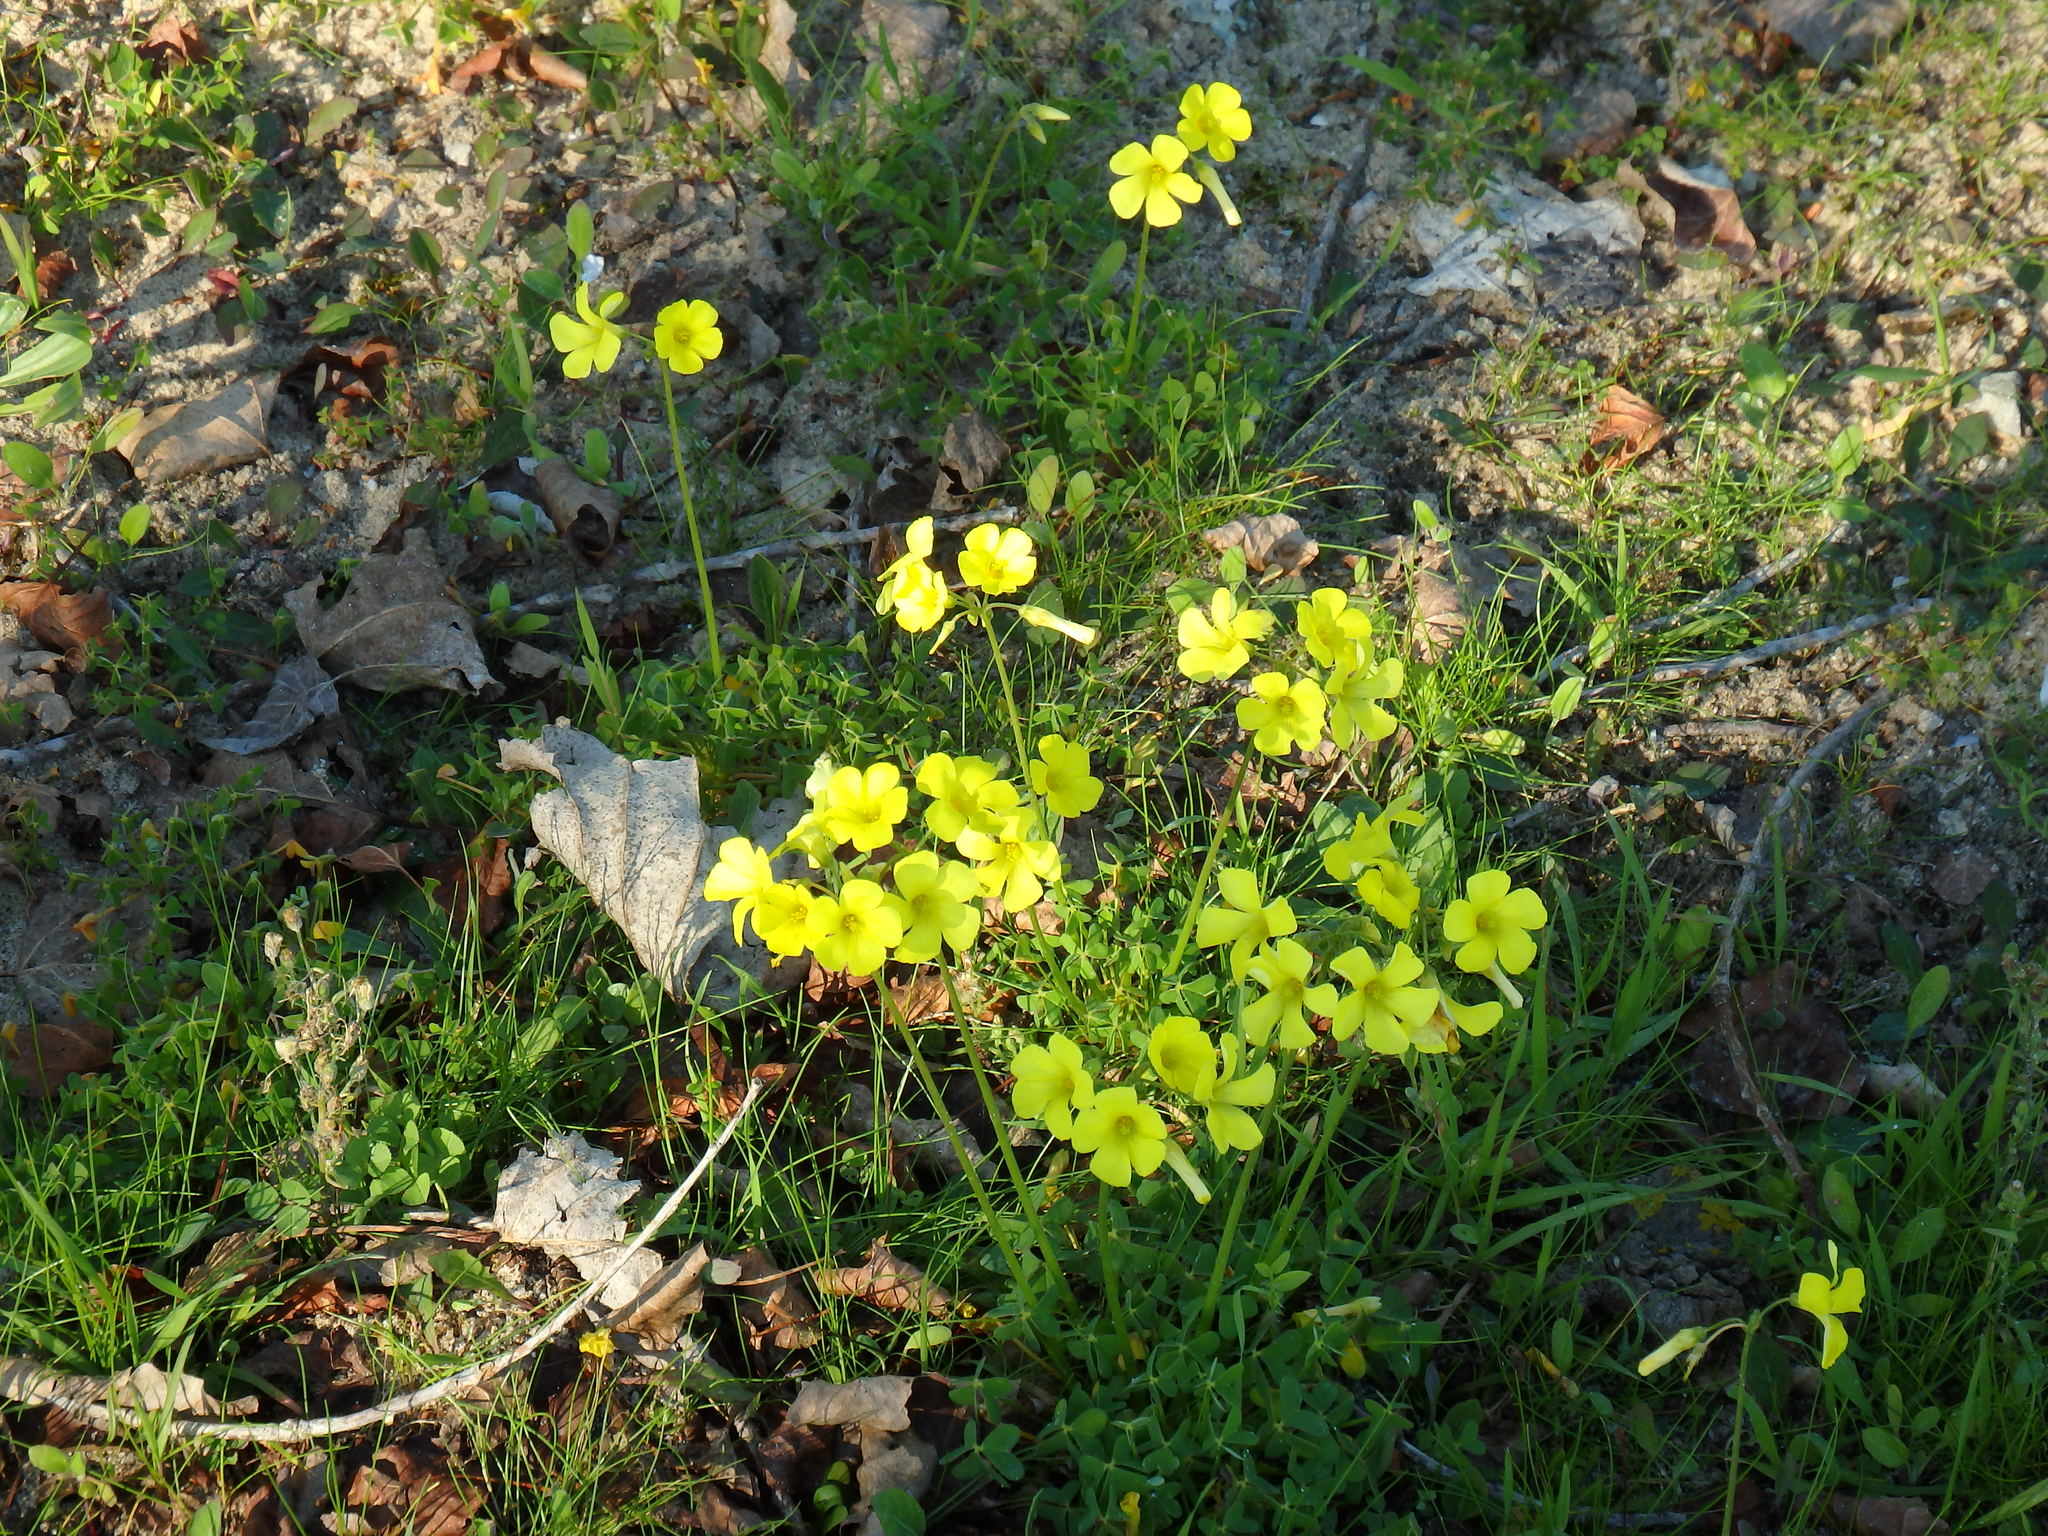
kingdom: Plantae
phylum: Tracheophyta
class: Magnoliopsida
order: Oxalidales
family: Oxalidaceae
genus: Oxalis
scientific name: Oxalis pes-caprae
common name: Bermuda-buttercup
